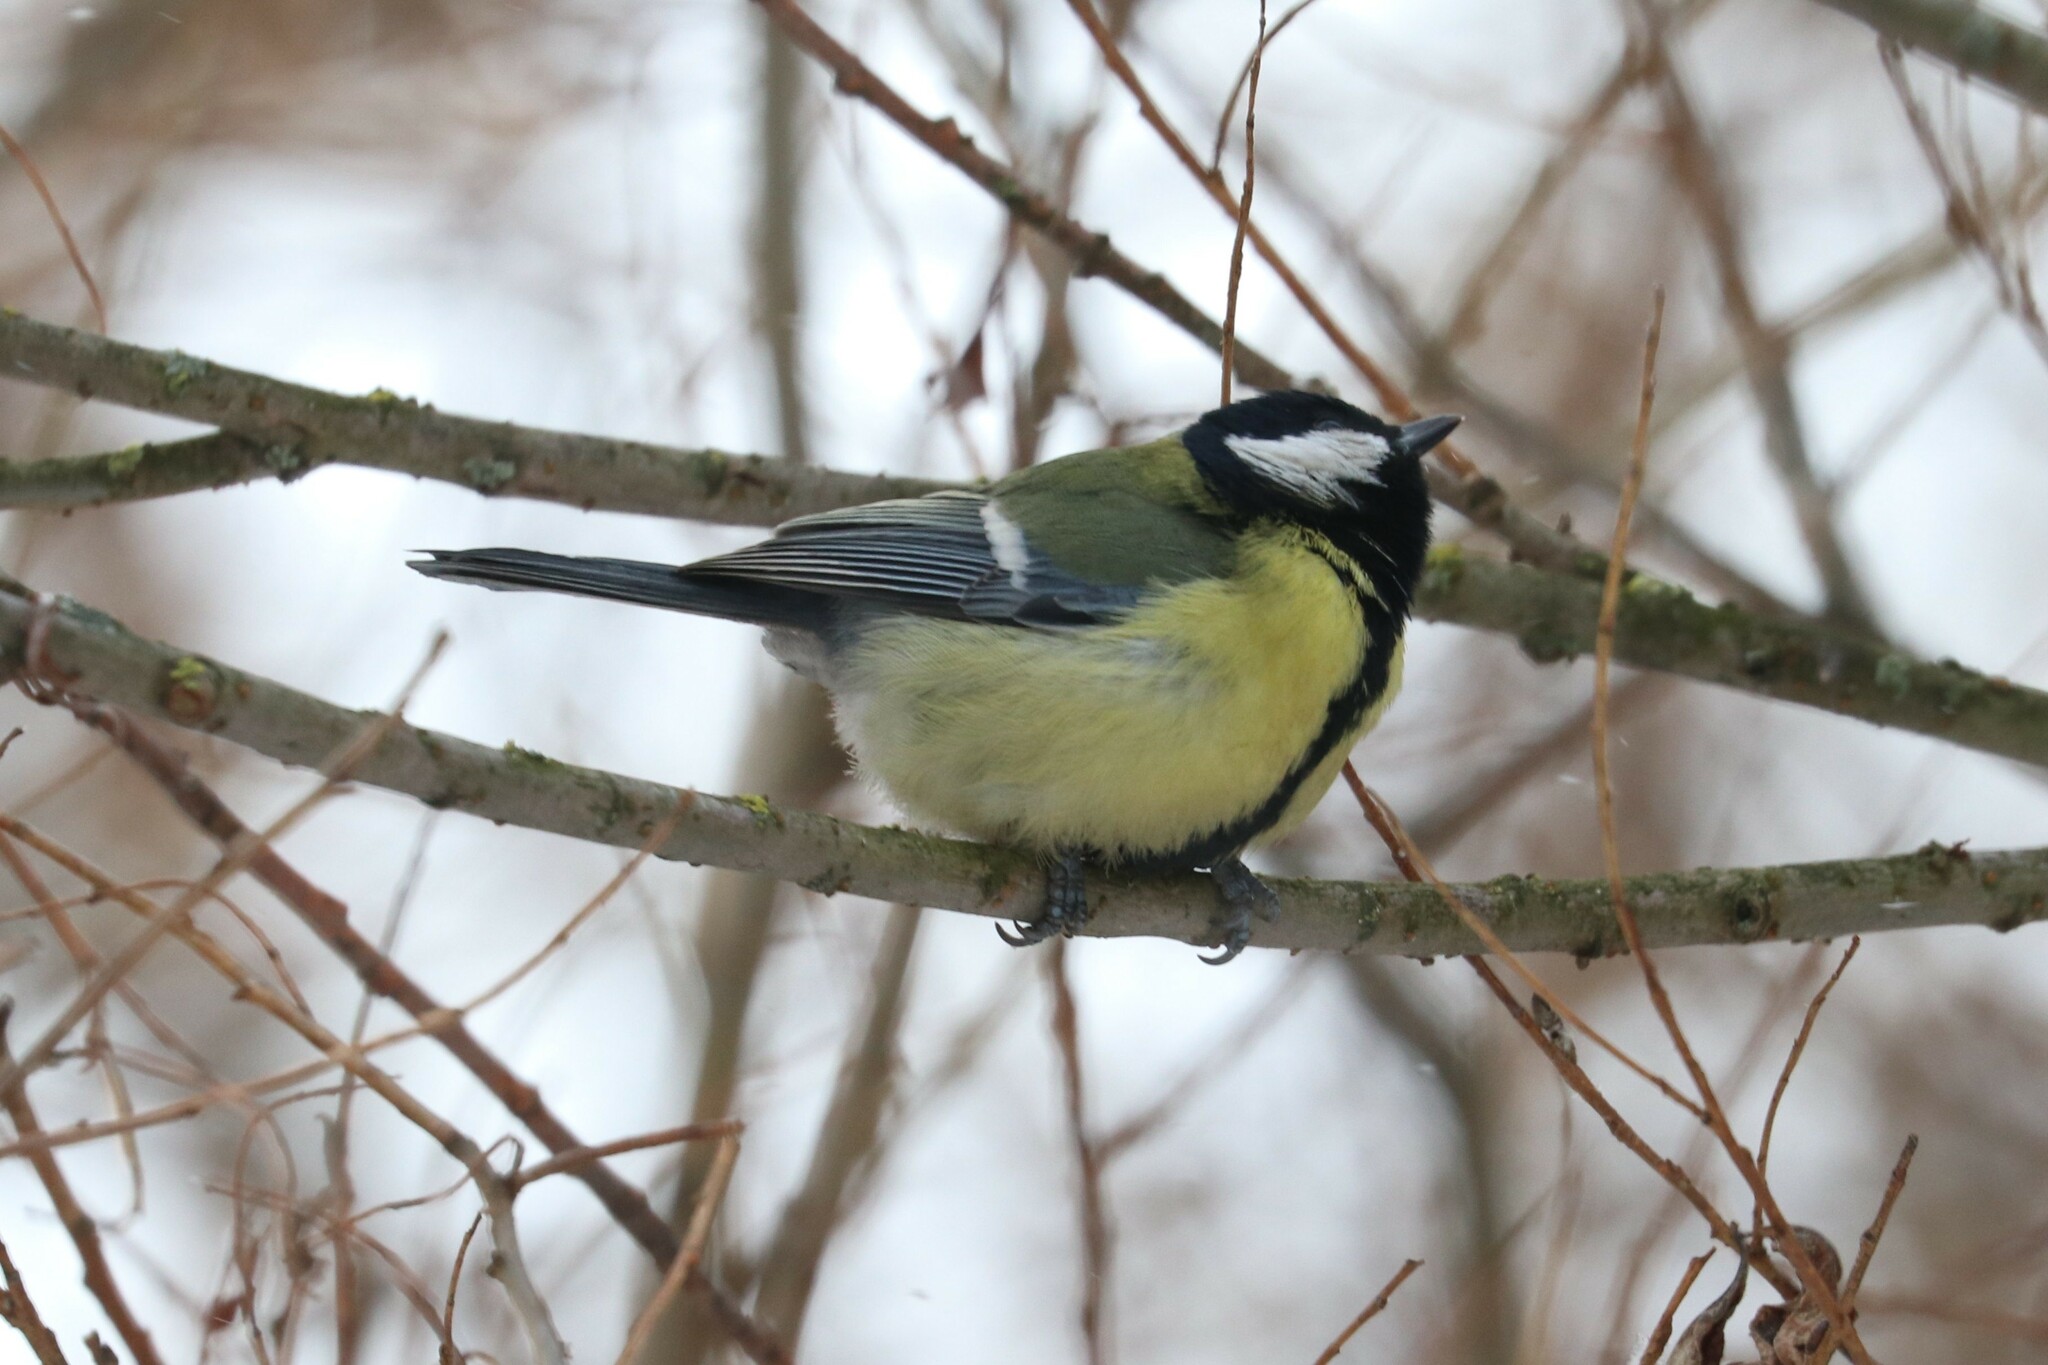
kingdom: Animalia
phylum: Chordata
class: Aves
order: Passeriformes
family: Paridae
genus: Parus
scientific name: Parus major
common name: Great tit
